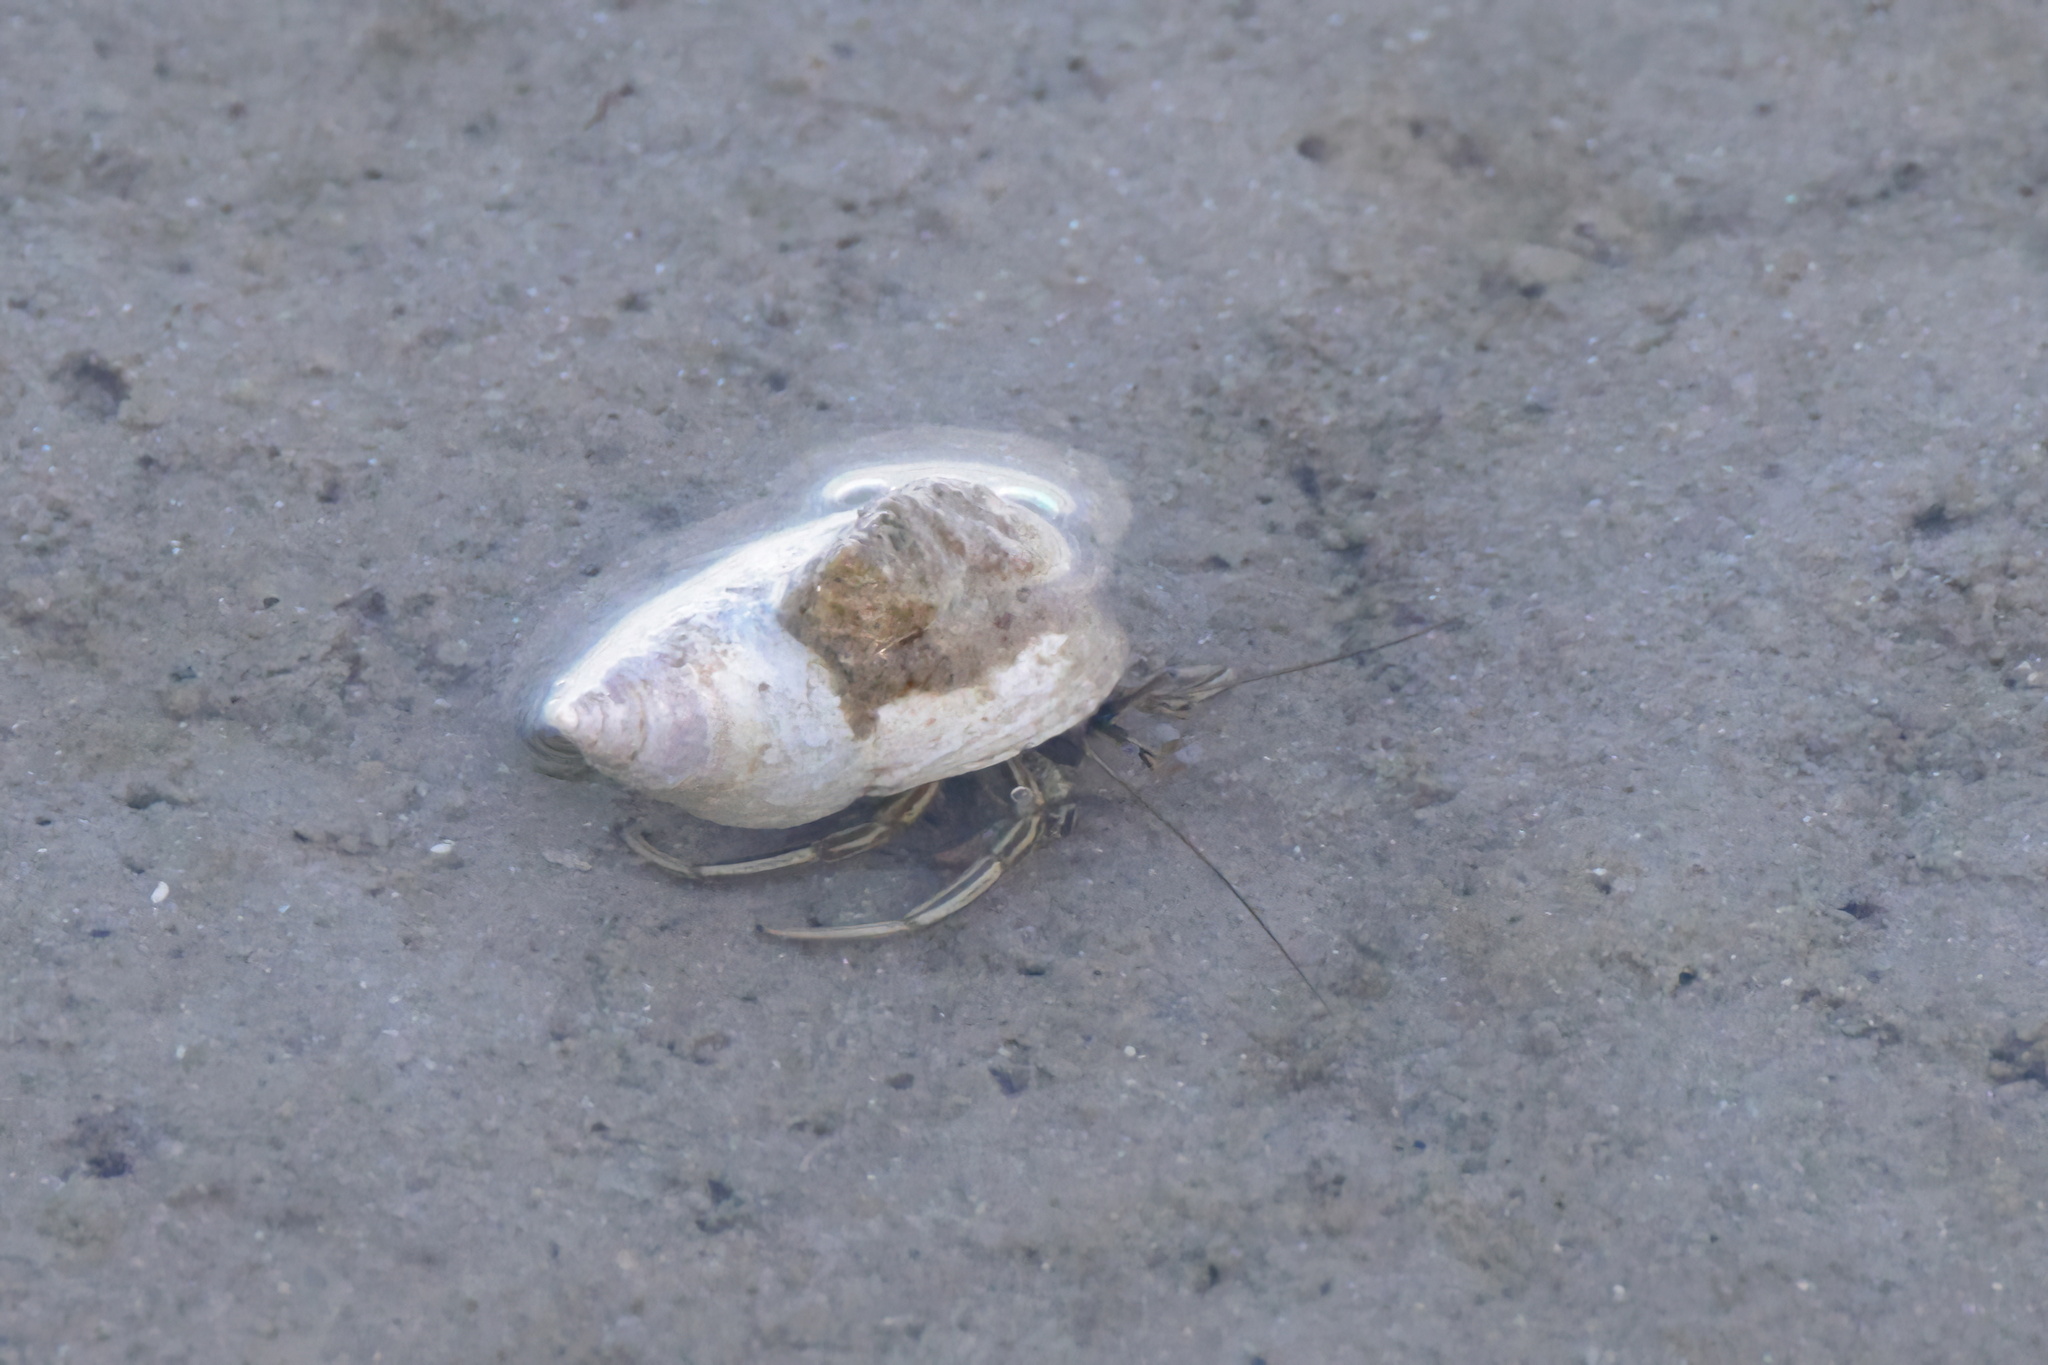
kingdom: Animalia
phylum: Arthropoda
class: Malacostraca
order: Decapoda
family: Diogenidae
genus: Clibanarius
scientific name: Clibanarius vittatus
